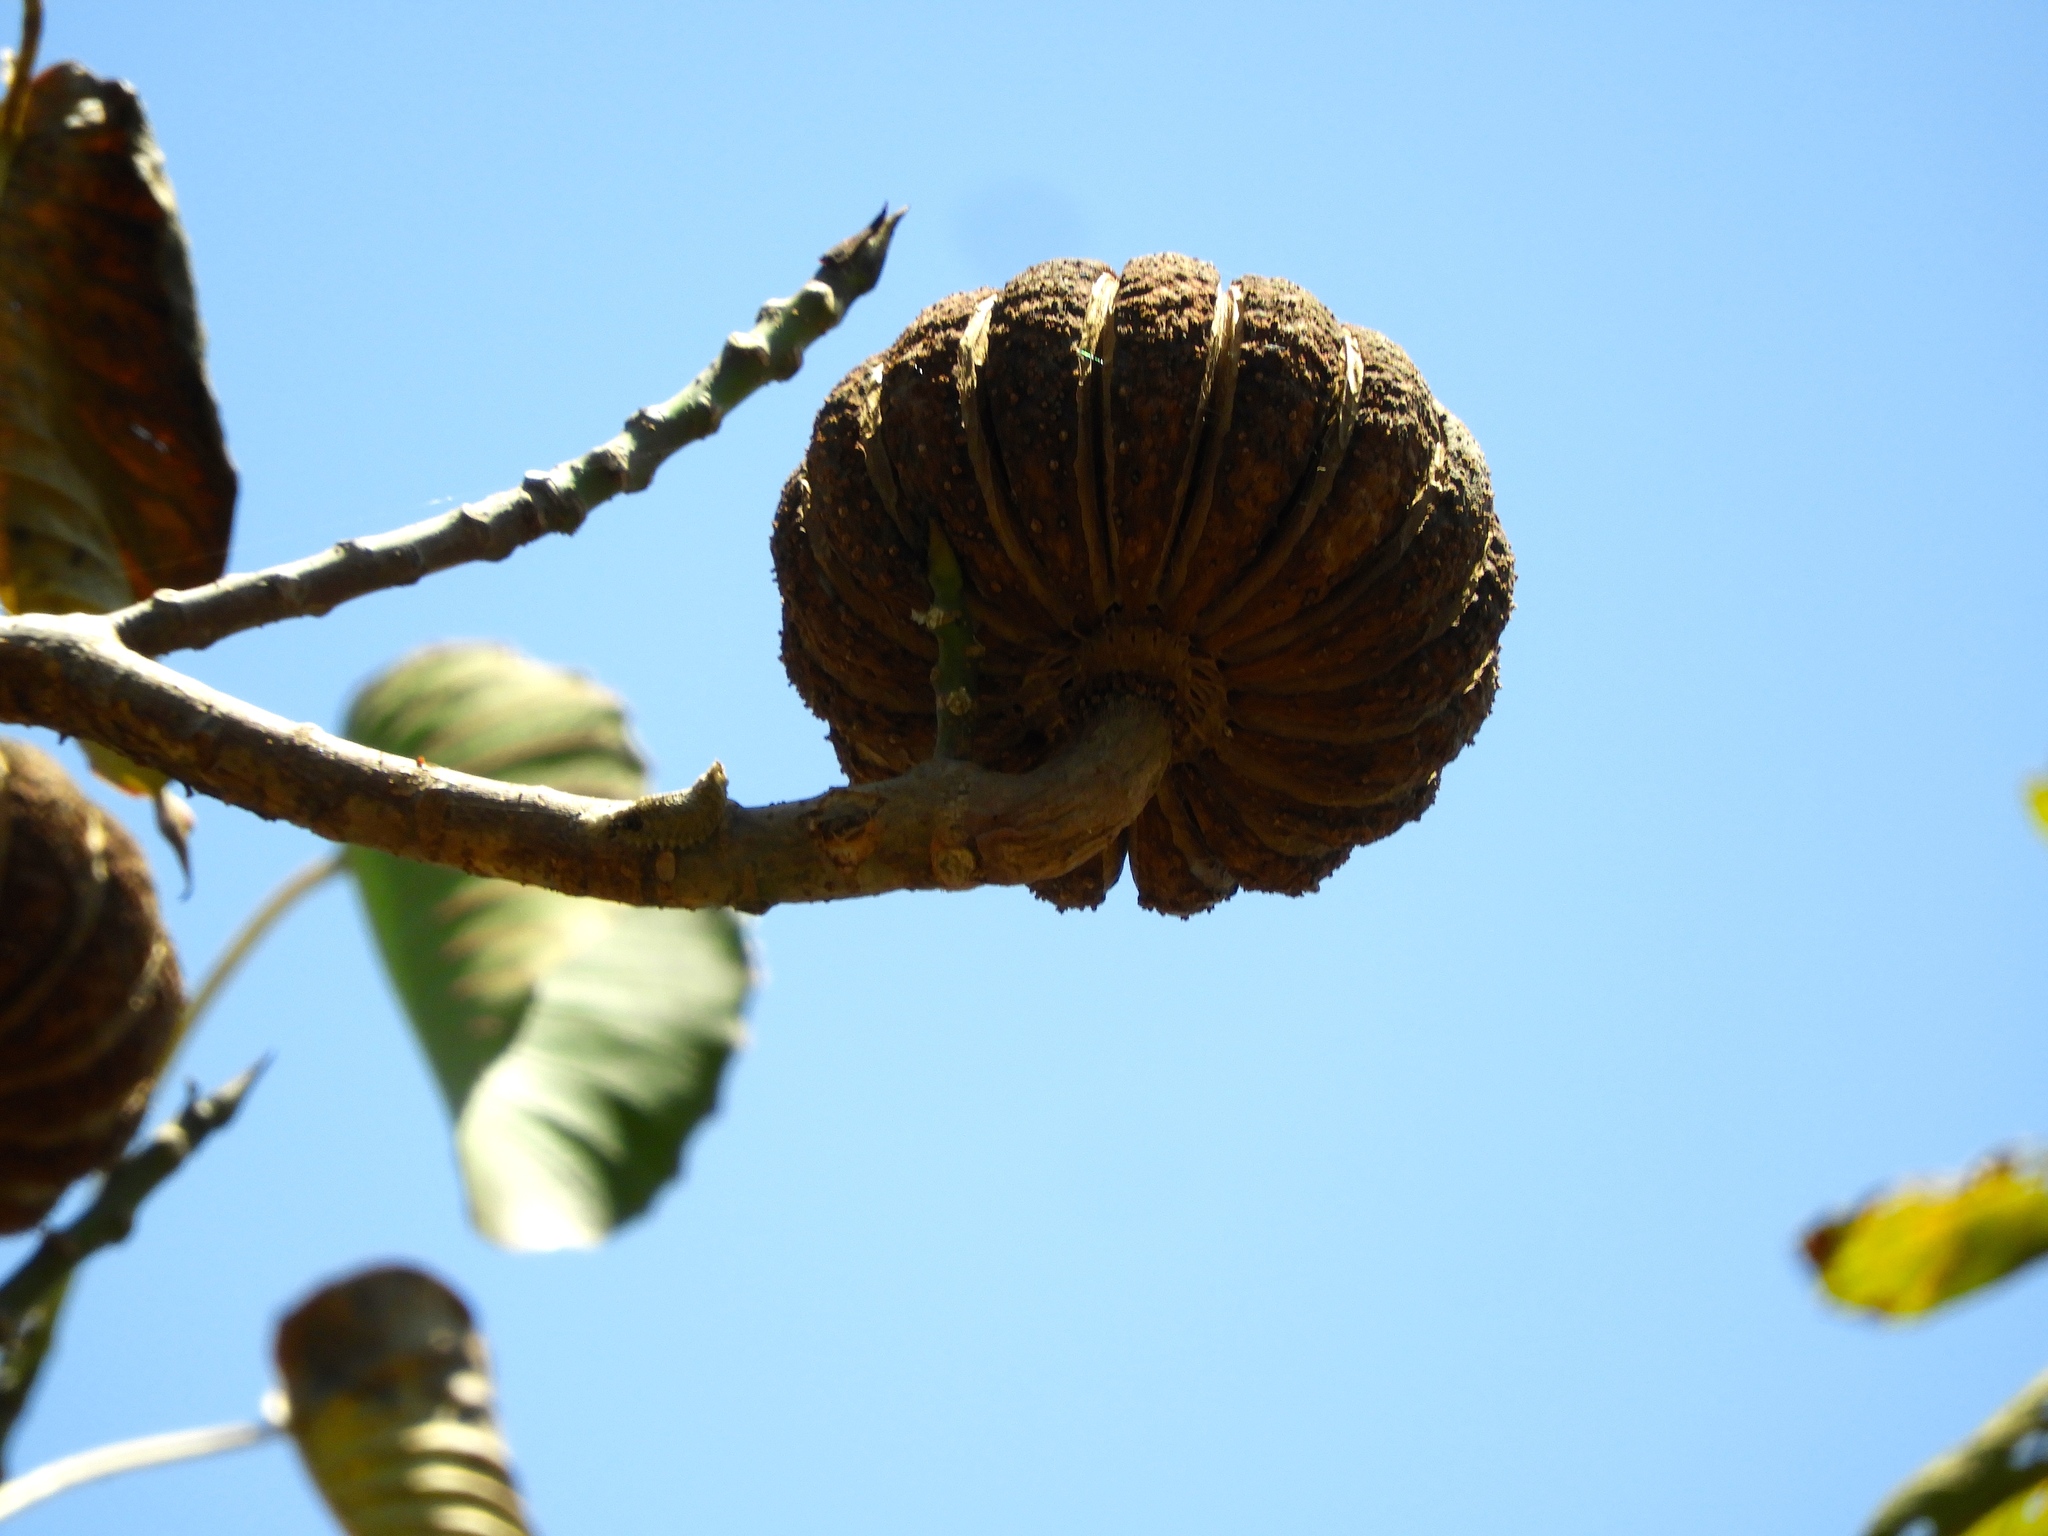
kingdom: Plantae
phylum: Tracheophyta
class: Magnoliopsida
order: Malpighiales
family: Euphorbiaceae
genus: Hura
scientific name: Hura polyandra
